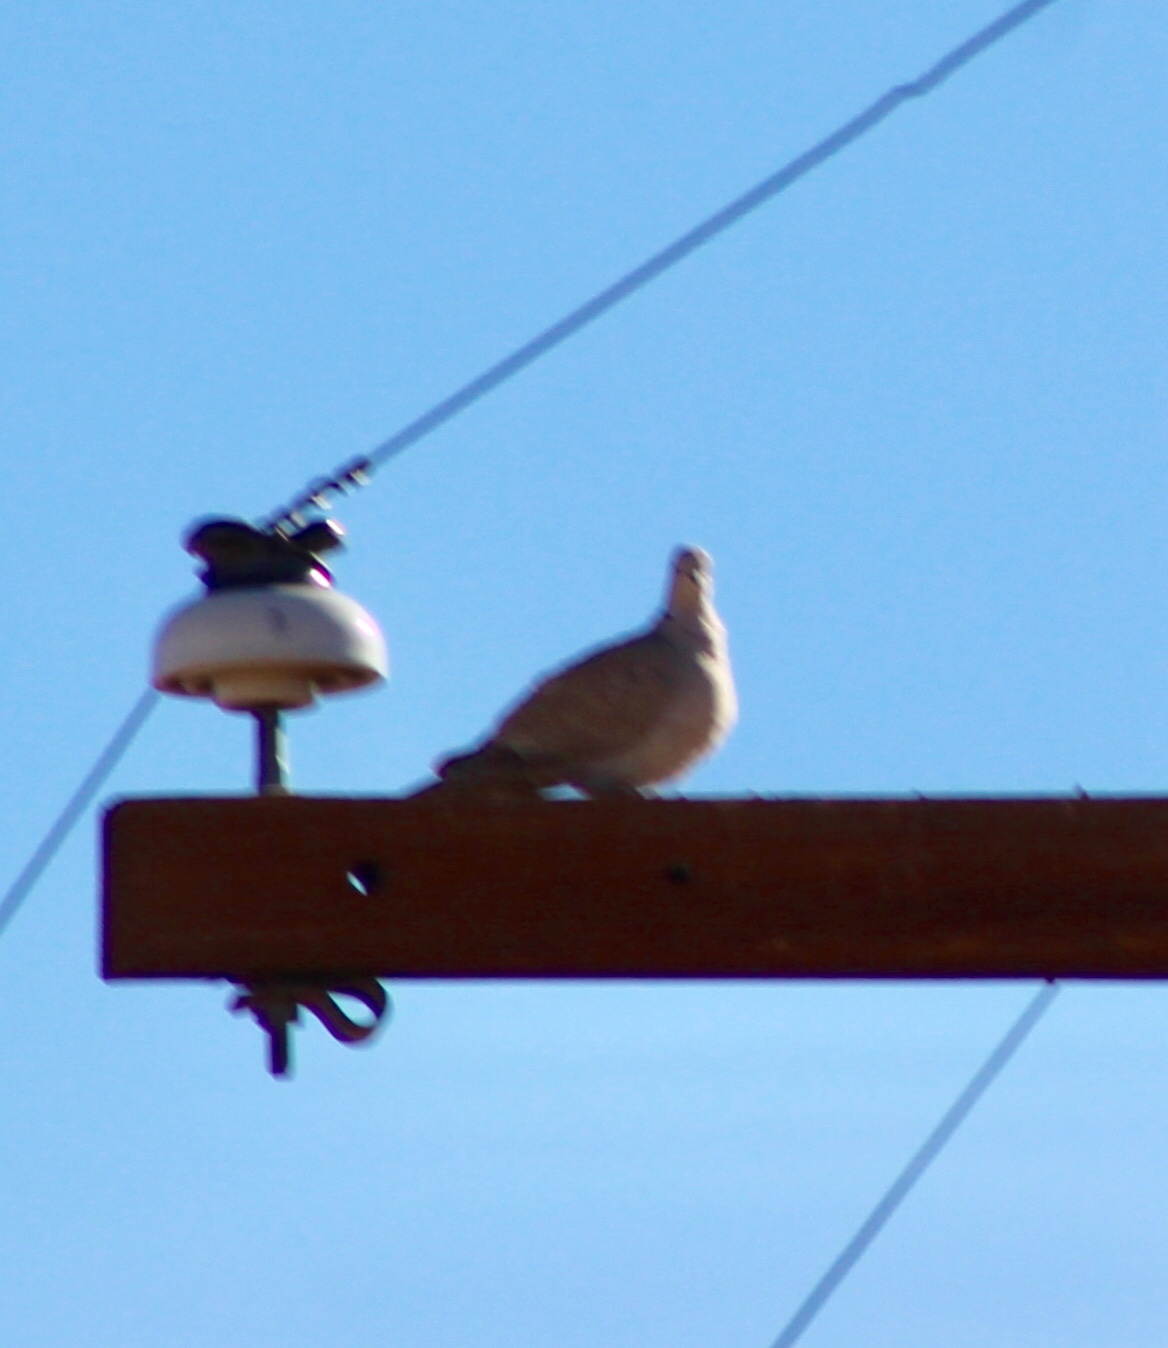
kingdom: Animalia
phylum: Chordata
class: Aves
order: Columbiformes
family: Columbidae
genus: Streptopelia
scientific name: Streptopelia decaocto
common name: Eurasian collared dove
